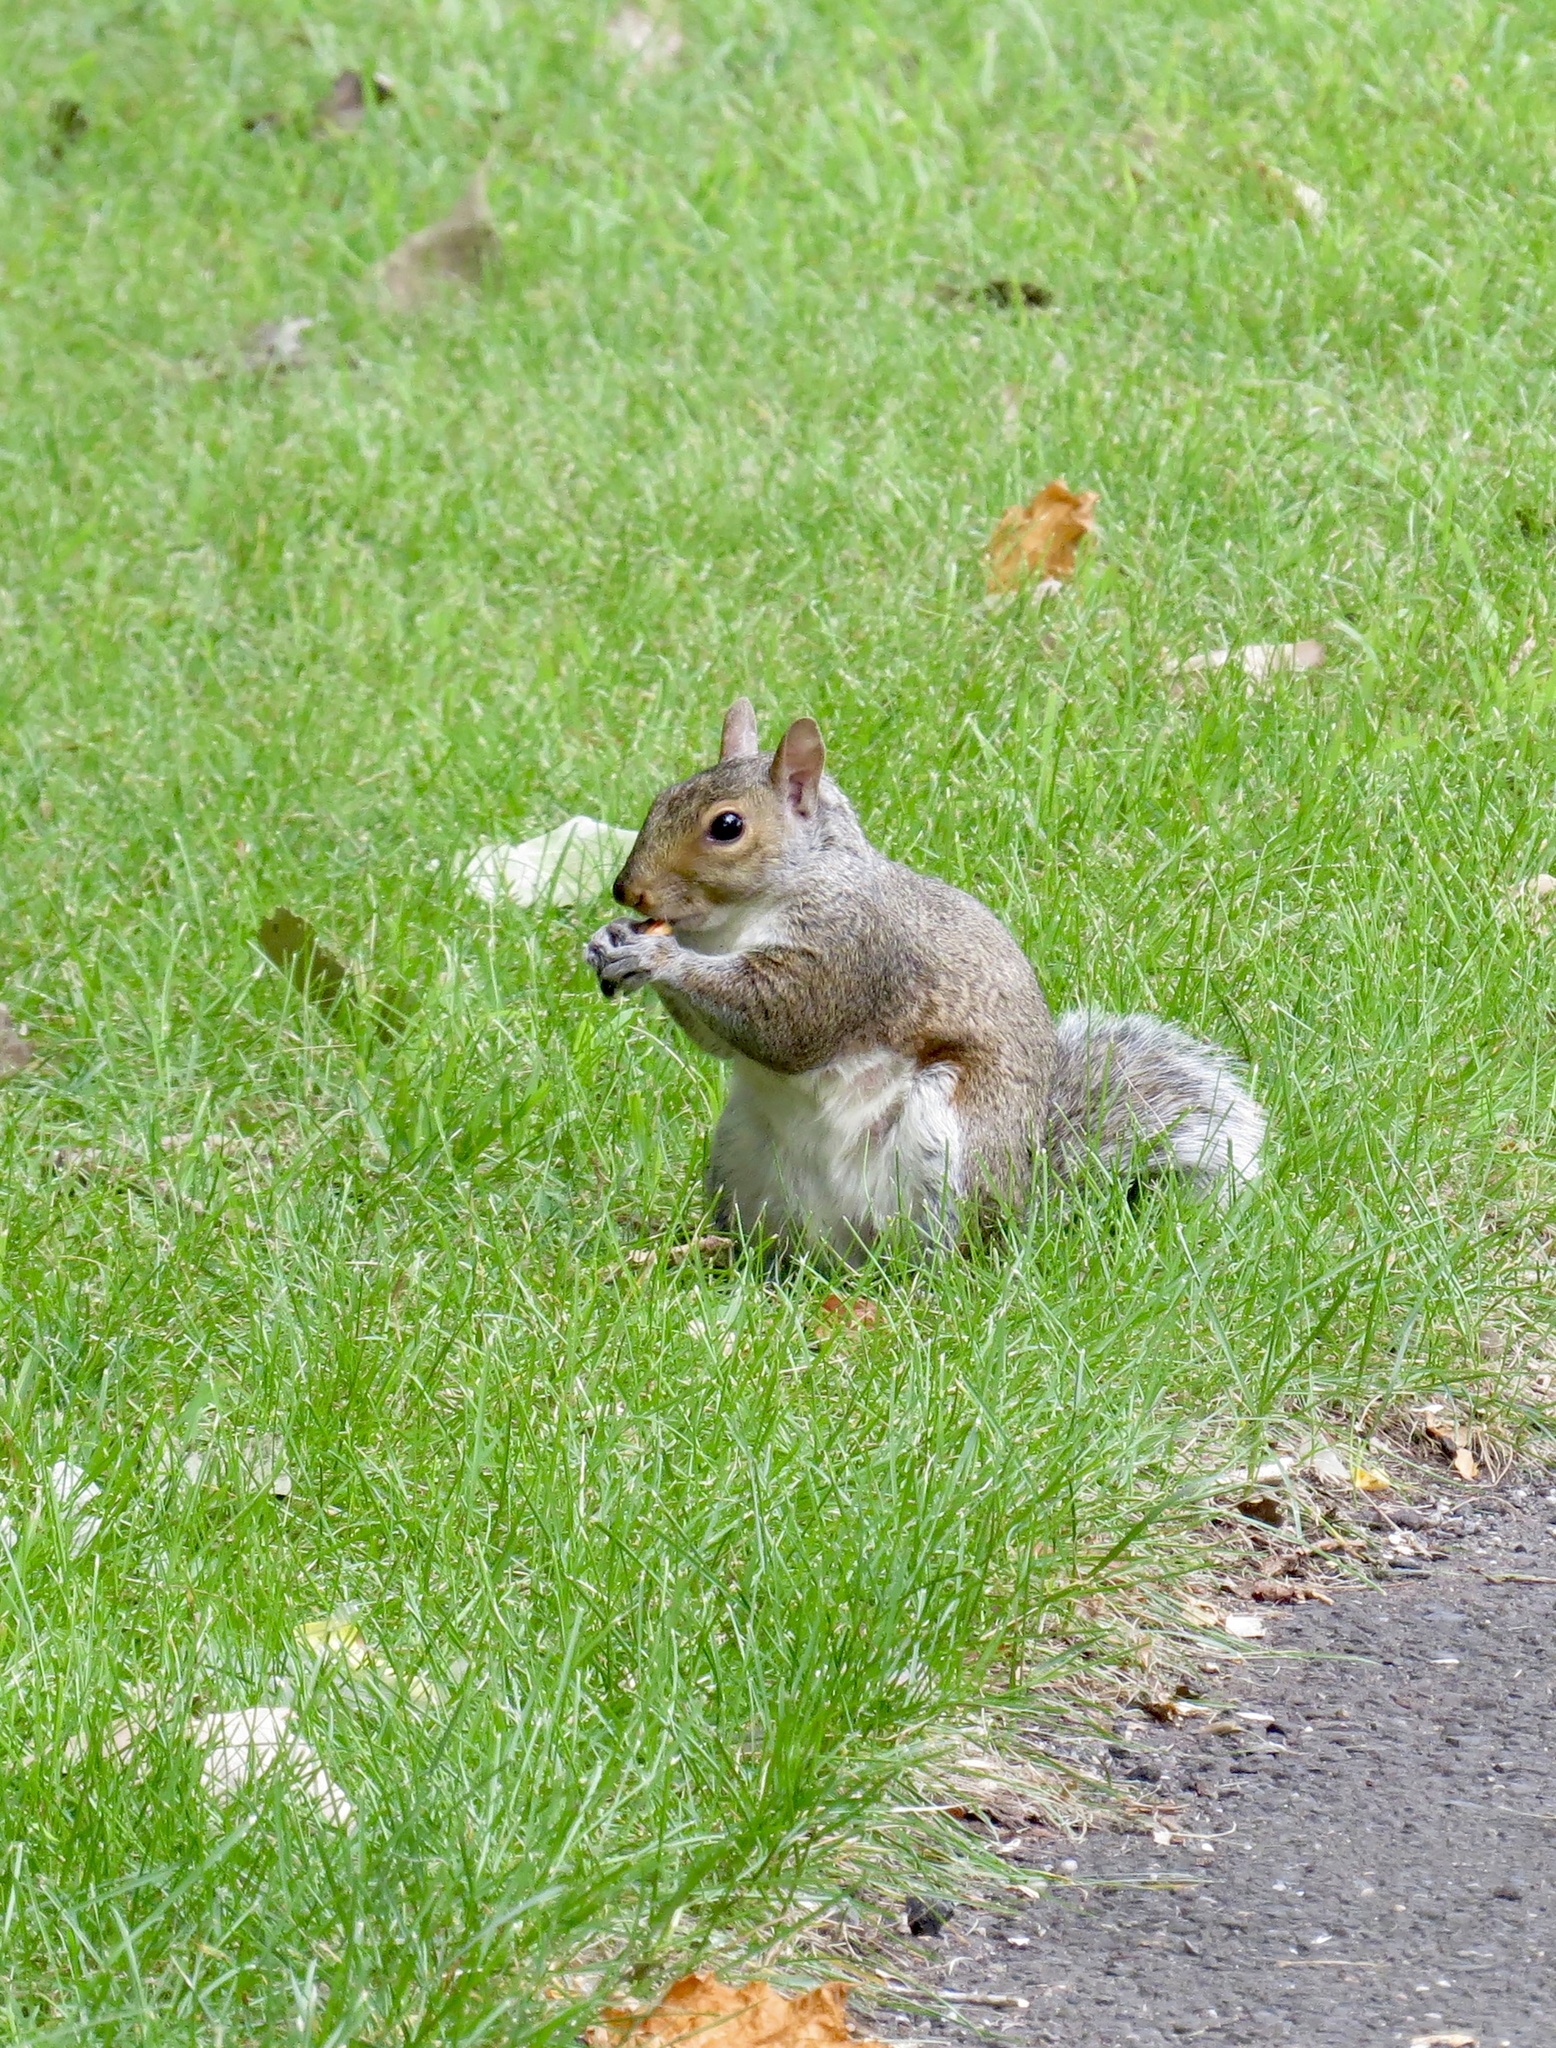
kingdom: Animalia
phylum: Chordata
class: Mammalia
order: Rodentia
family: Sciuridae
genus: Sciurus
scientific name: Sciurus carolinensis
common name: Eastern gray squirrel
